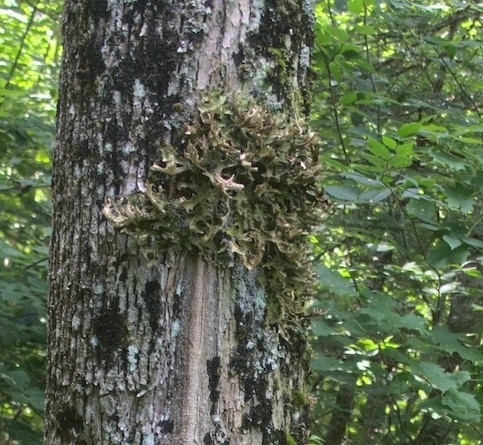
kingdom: Fungi
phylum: Ascomycota
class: Lecanoromycetes
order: Peltigerales
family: Lobariaceae
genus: Lobaria
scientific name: Lobaria pulmonaria
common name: Lungwort
